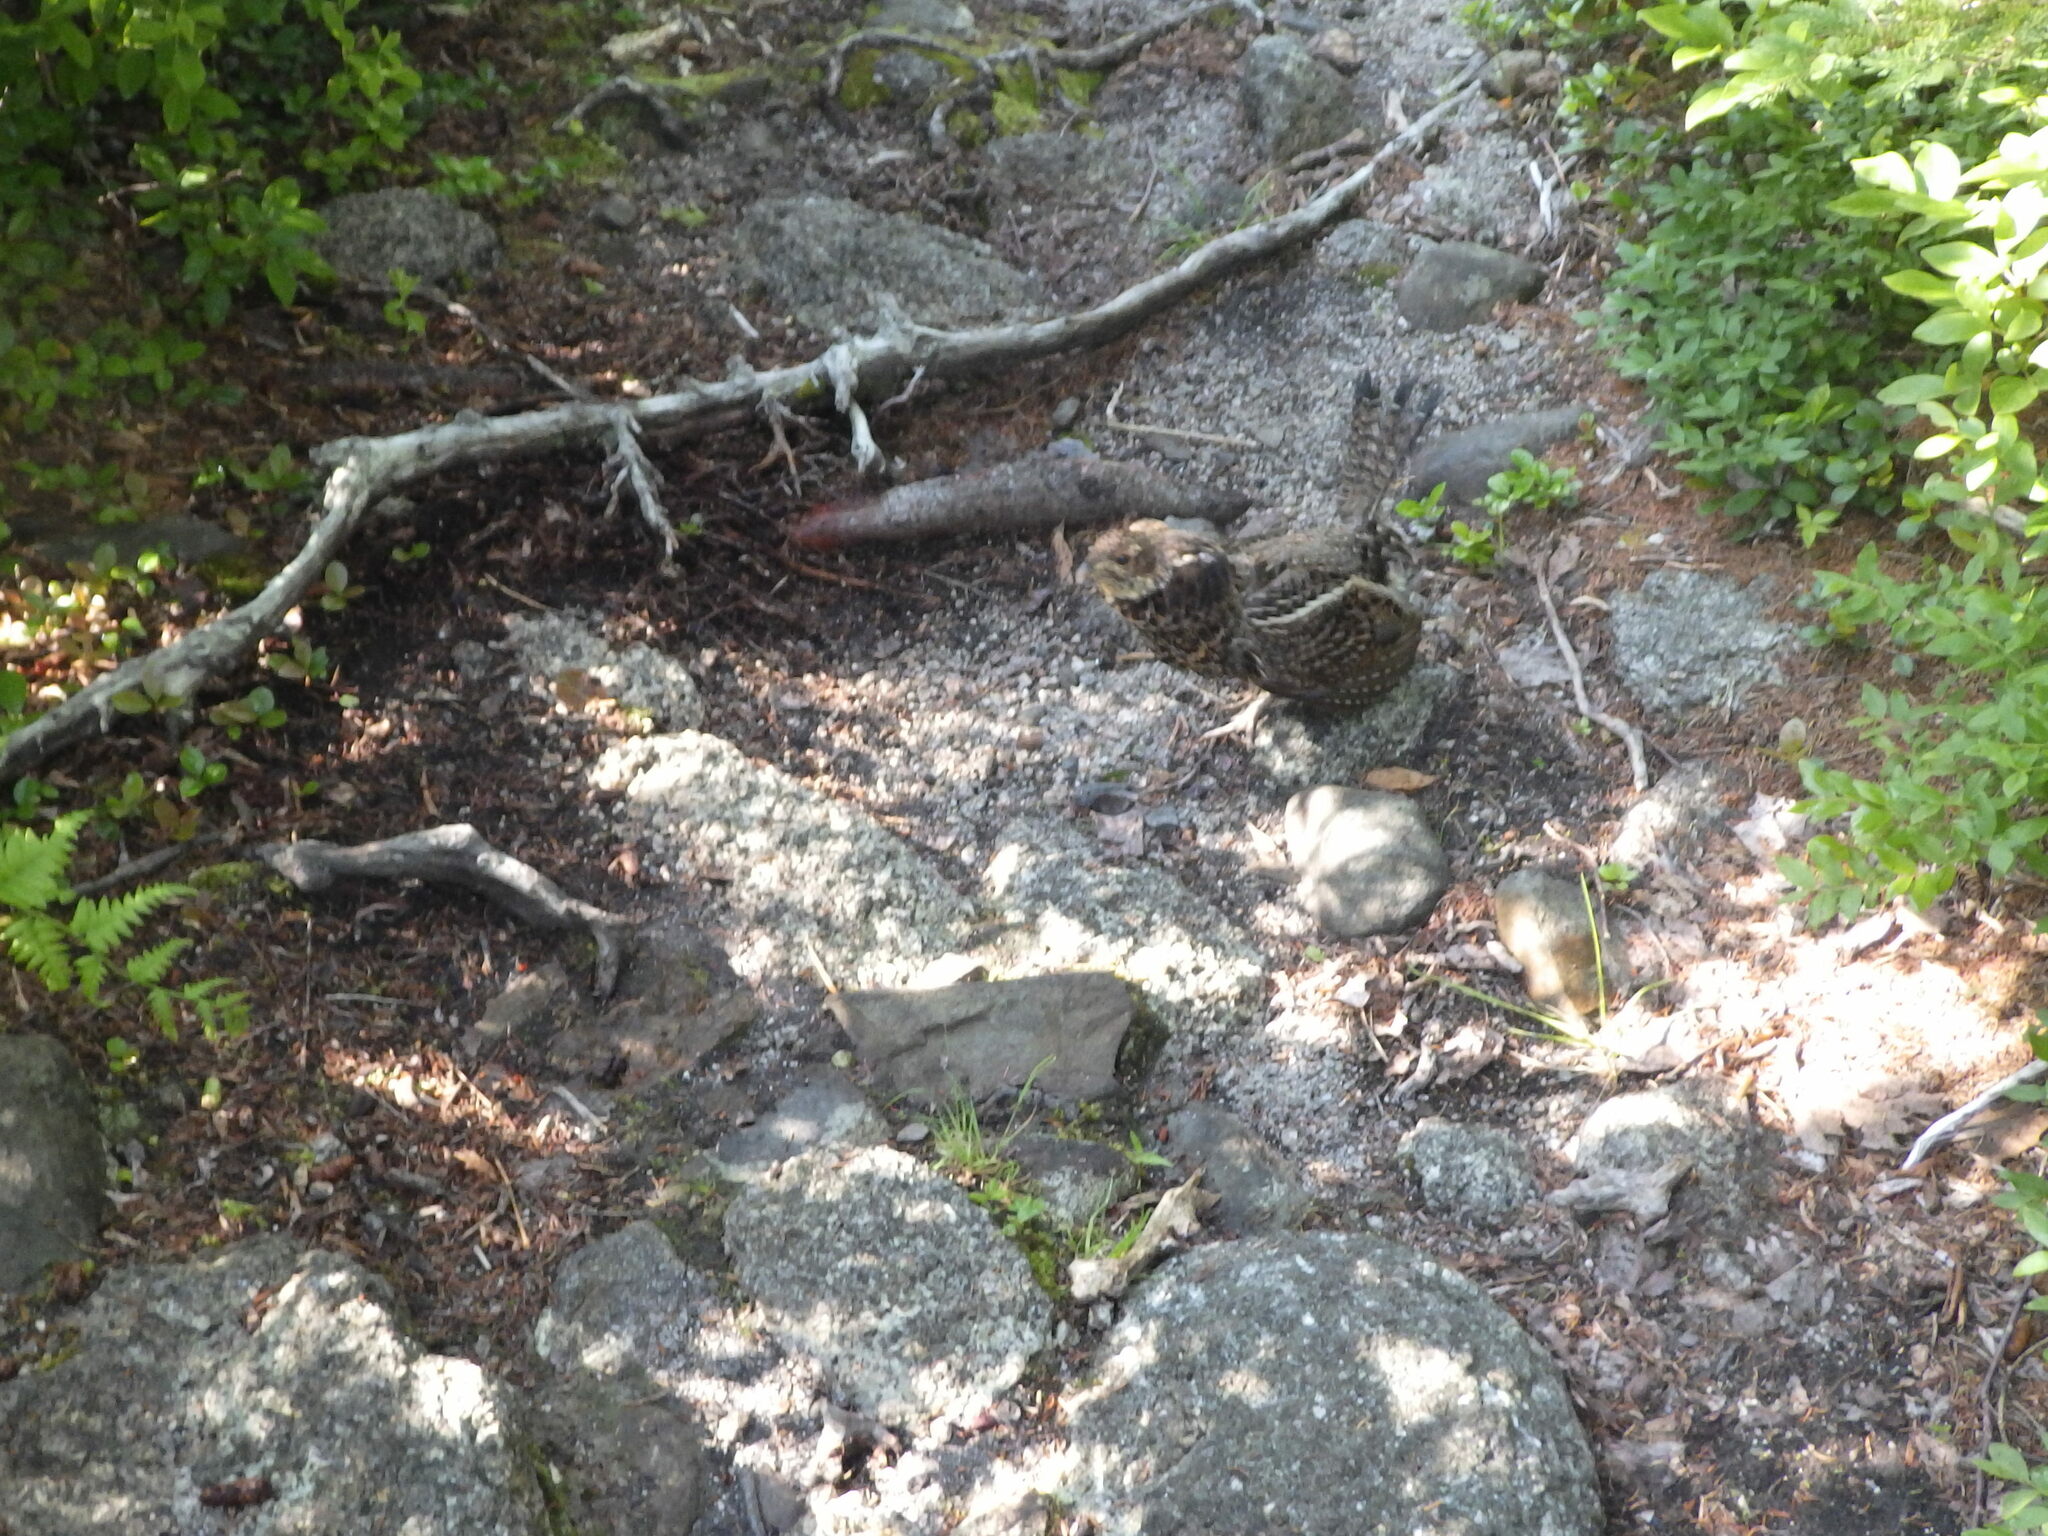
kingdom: Animalia
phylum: Chordata
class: Aves
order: Galliformes
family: Phasianidae
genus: Bonasa
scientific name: Bonasa umbellus
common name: Ruffed grouse
